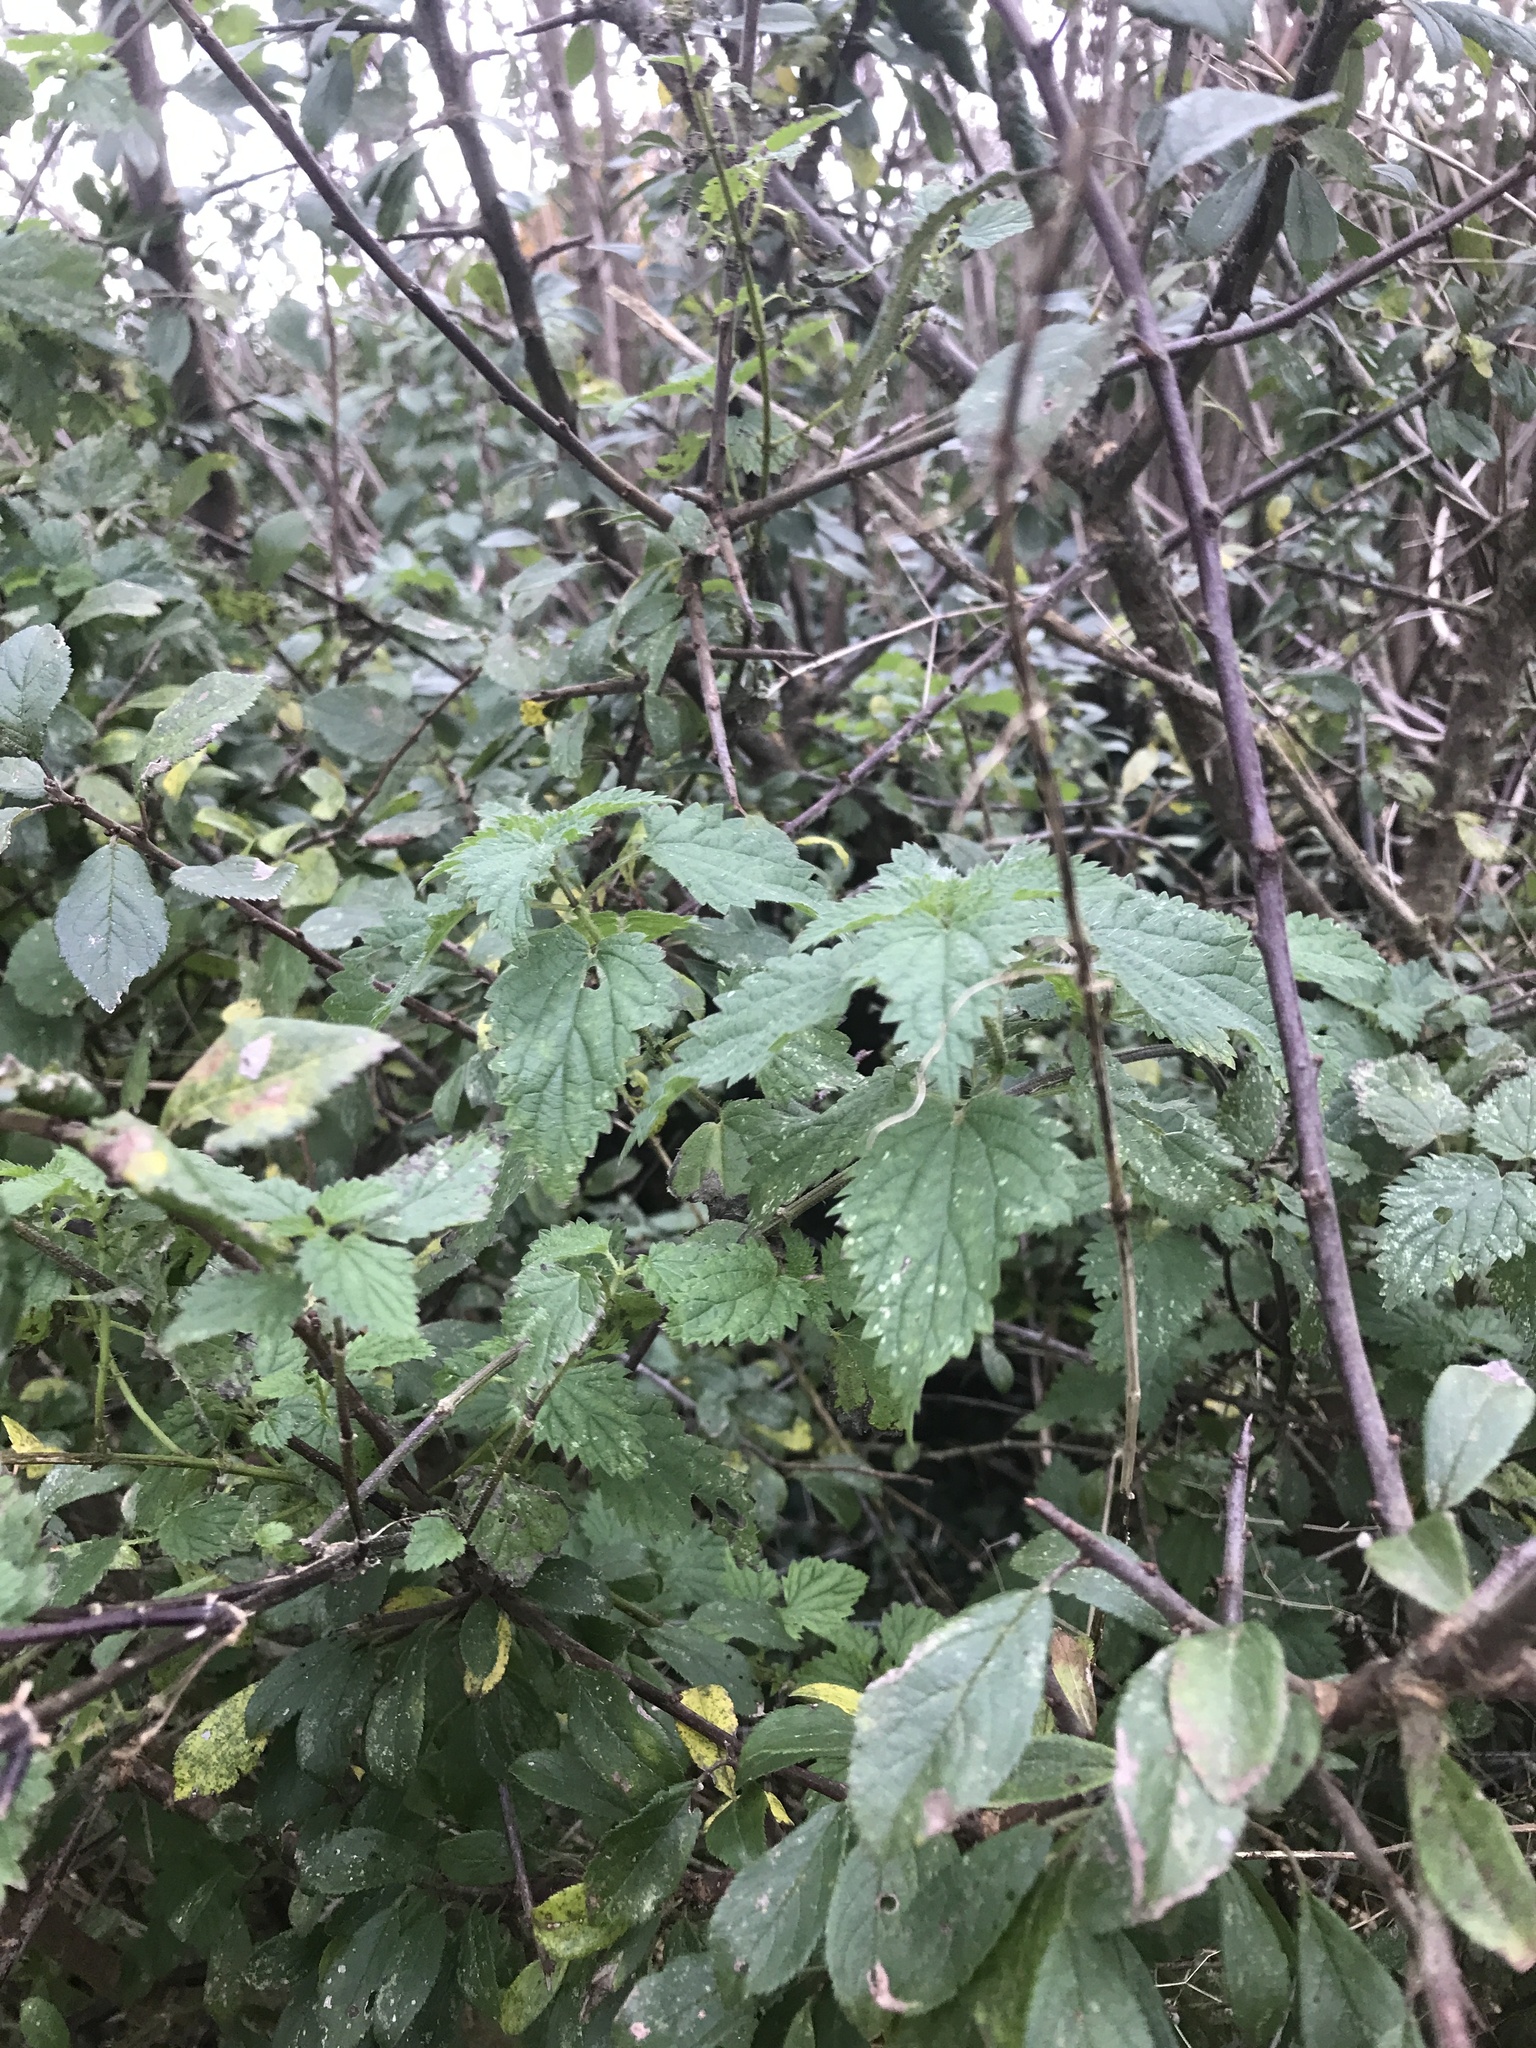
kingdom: Plantae
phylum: Tracheophyta
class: Magnoliopsida
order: Rosales
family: Urticaceae
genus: Urtica
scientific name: Urtica dioica
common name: Common nettle
